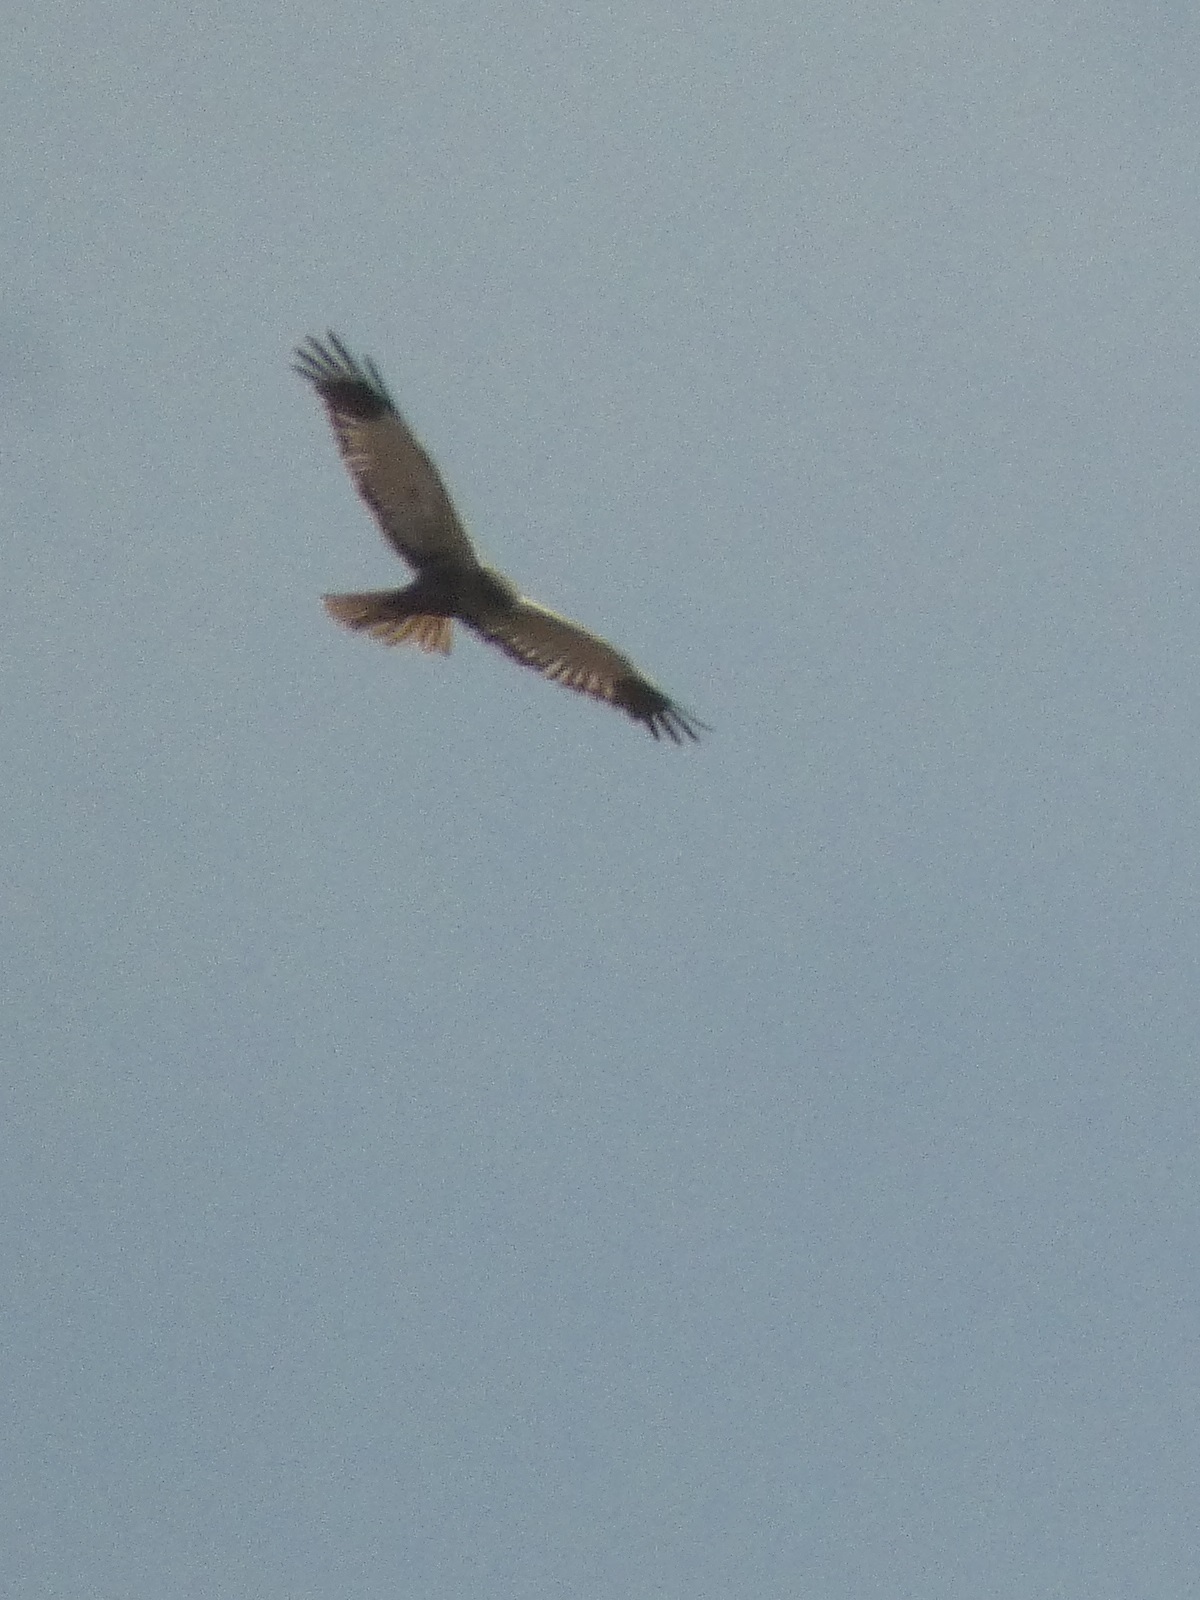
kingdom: Animalia
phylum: Chordata
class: Aves
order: Accipitriformes
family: Accipitridae
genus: Circus
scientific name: Circus aeruginosus
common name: Western marsh harrier
